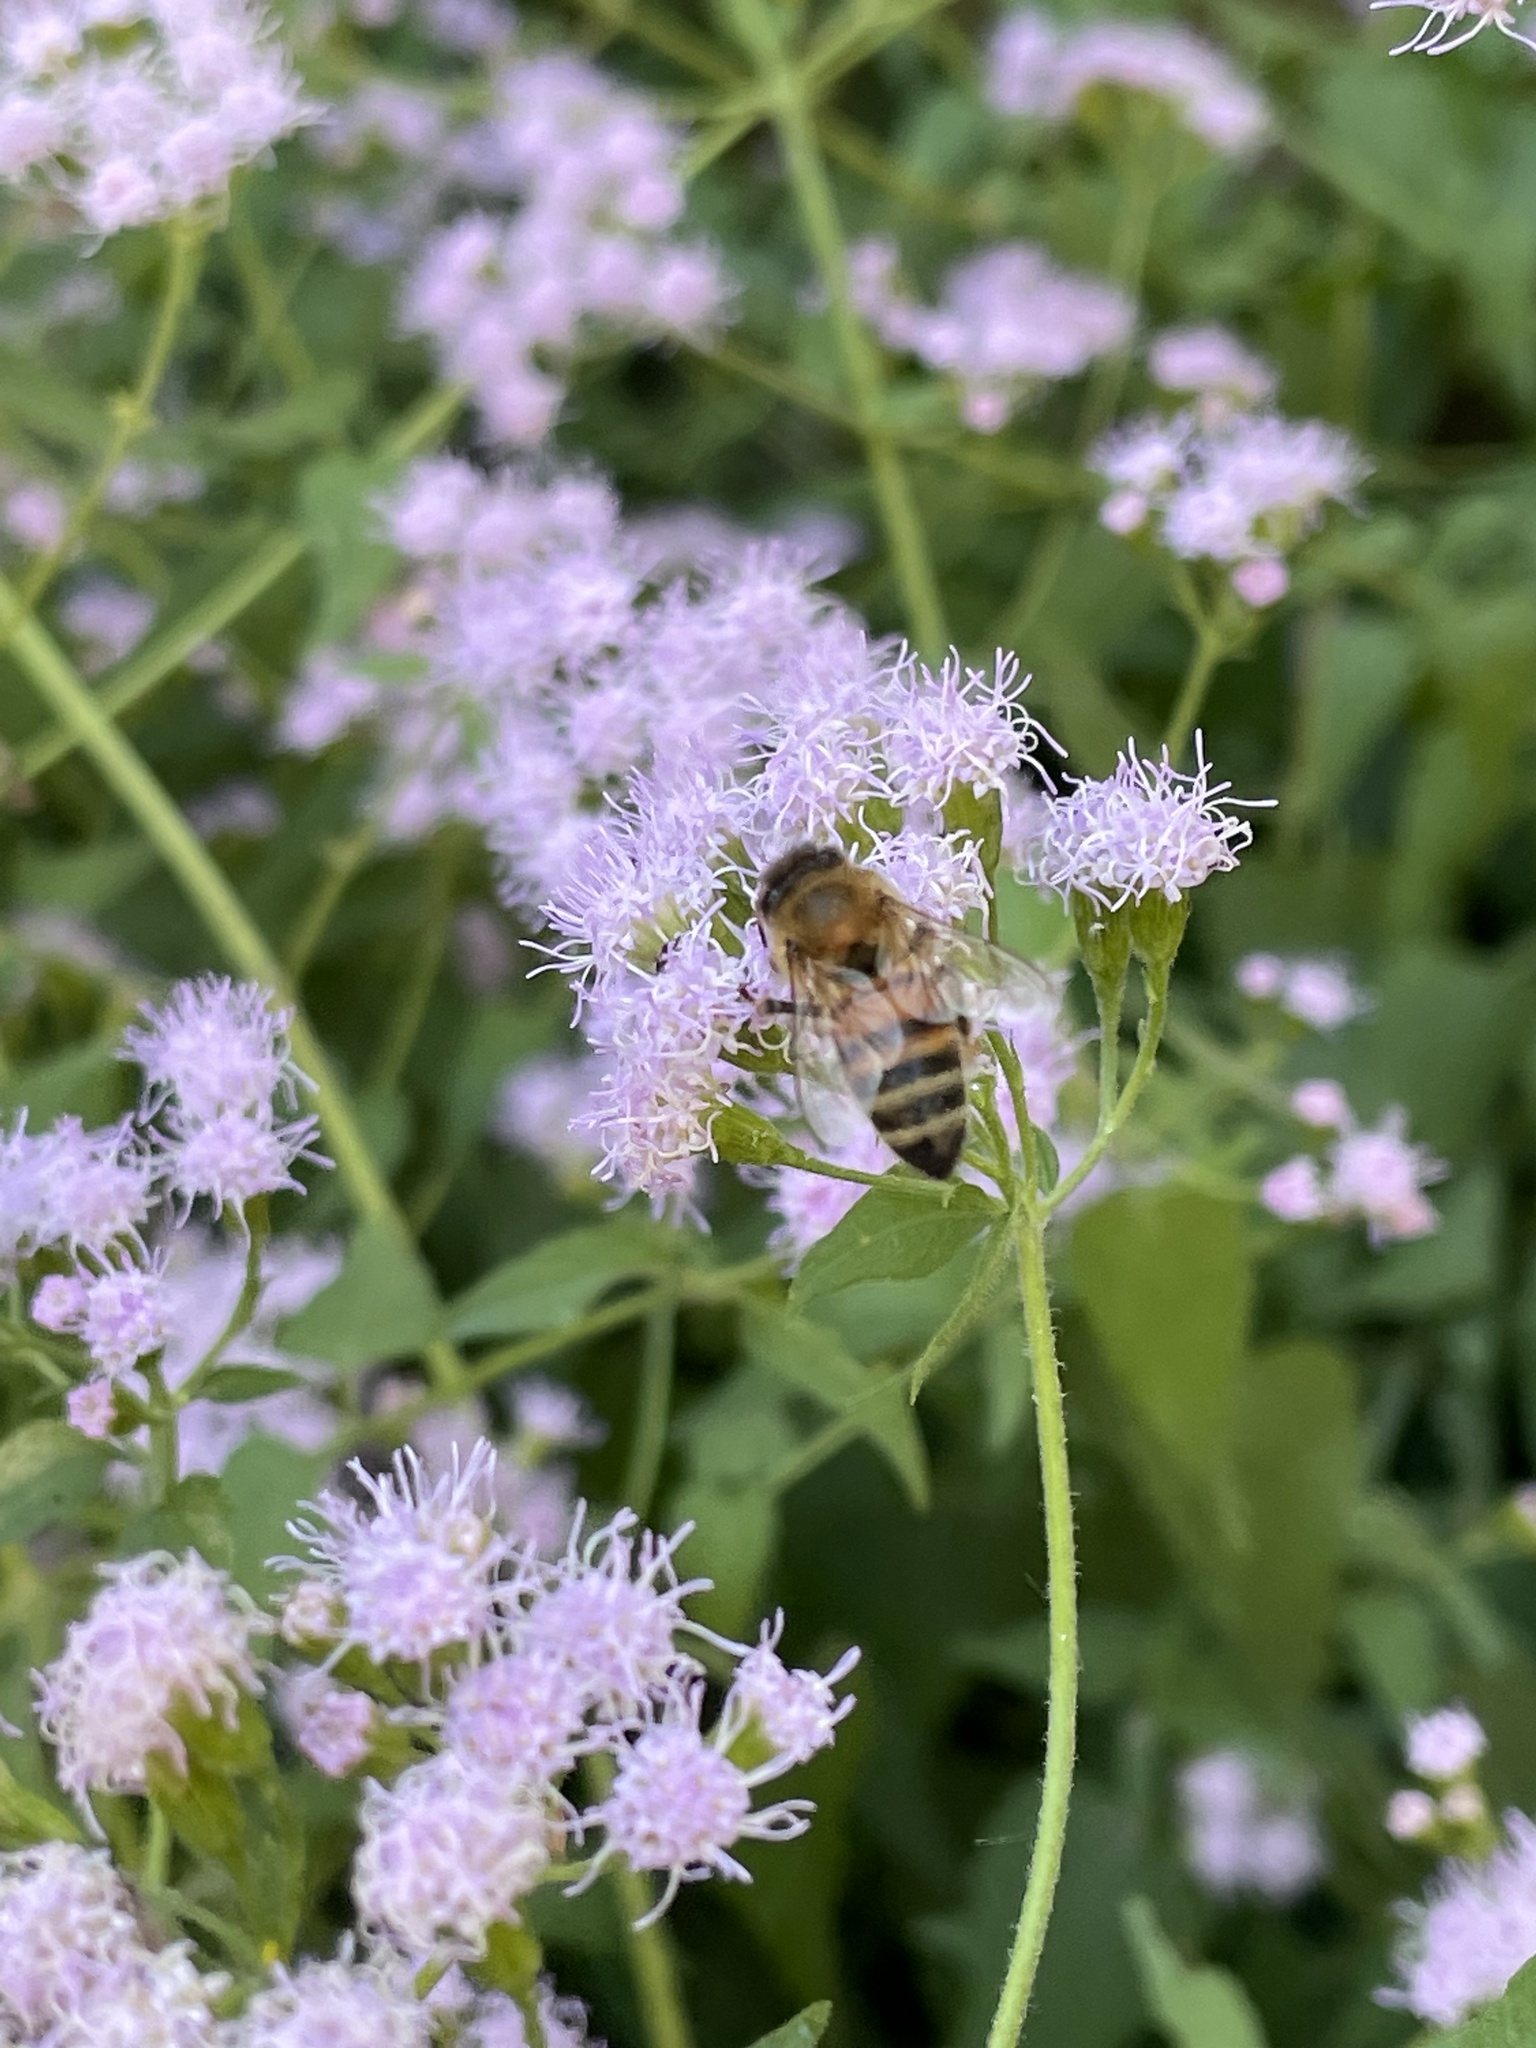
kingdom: Animalia
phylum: Arthropoda
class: Insecta
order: Hymenoptera
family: Apidae
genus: Apis
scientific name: Apis mellifera
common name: Honey bee
